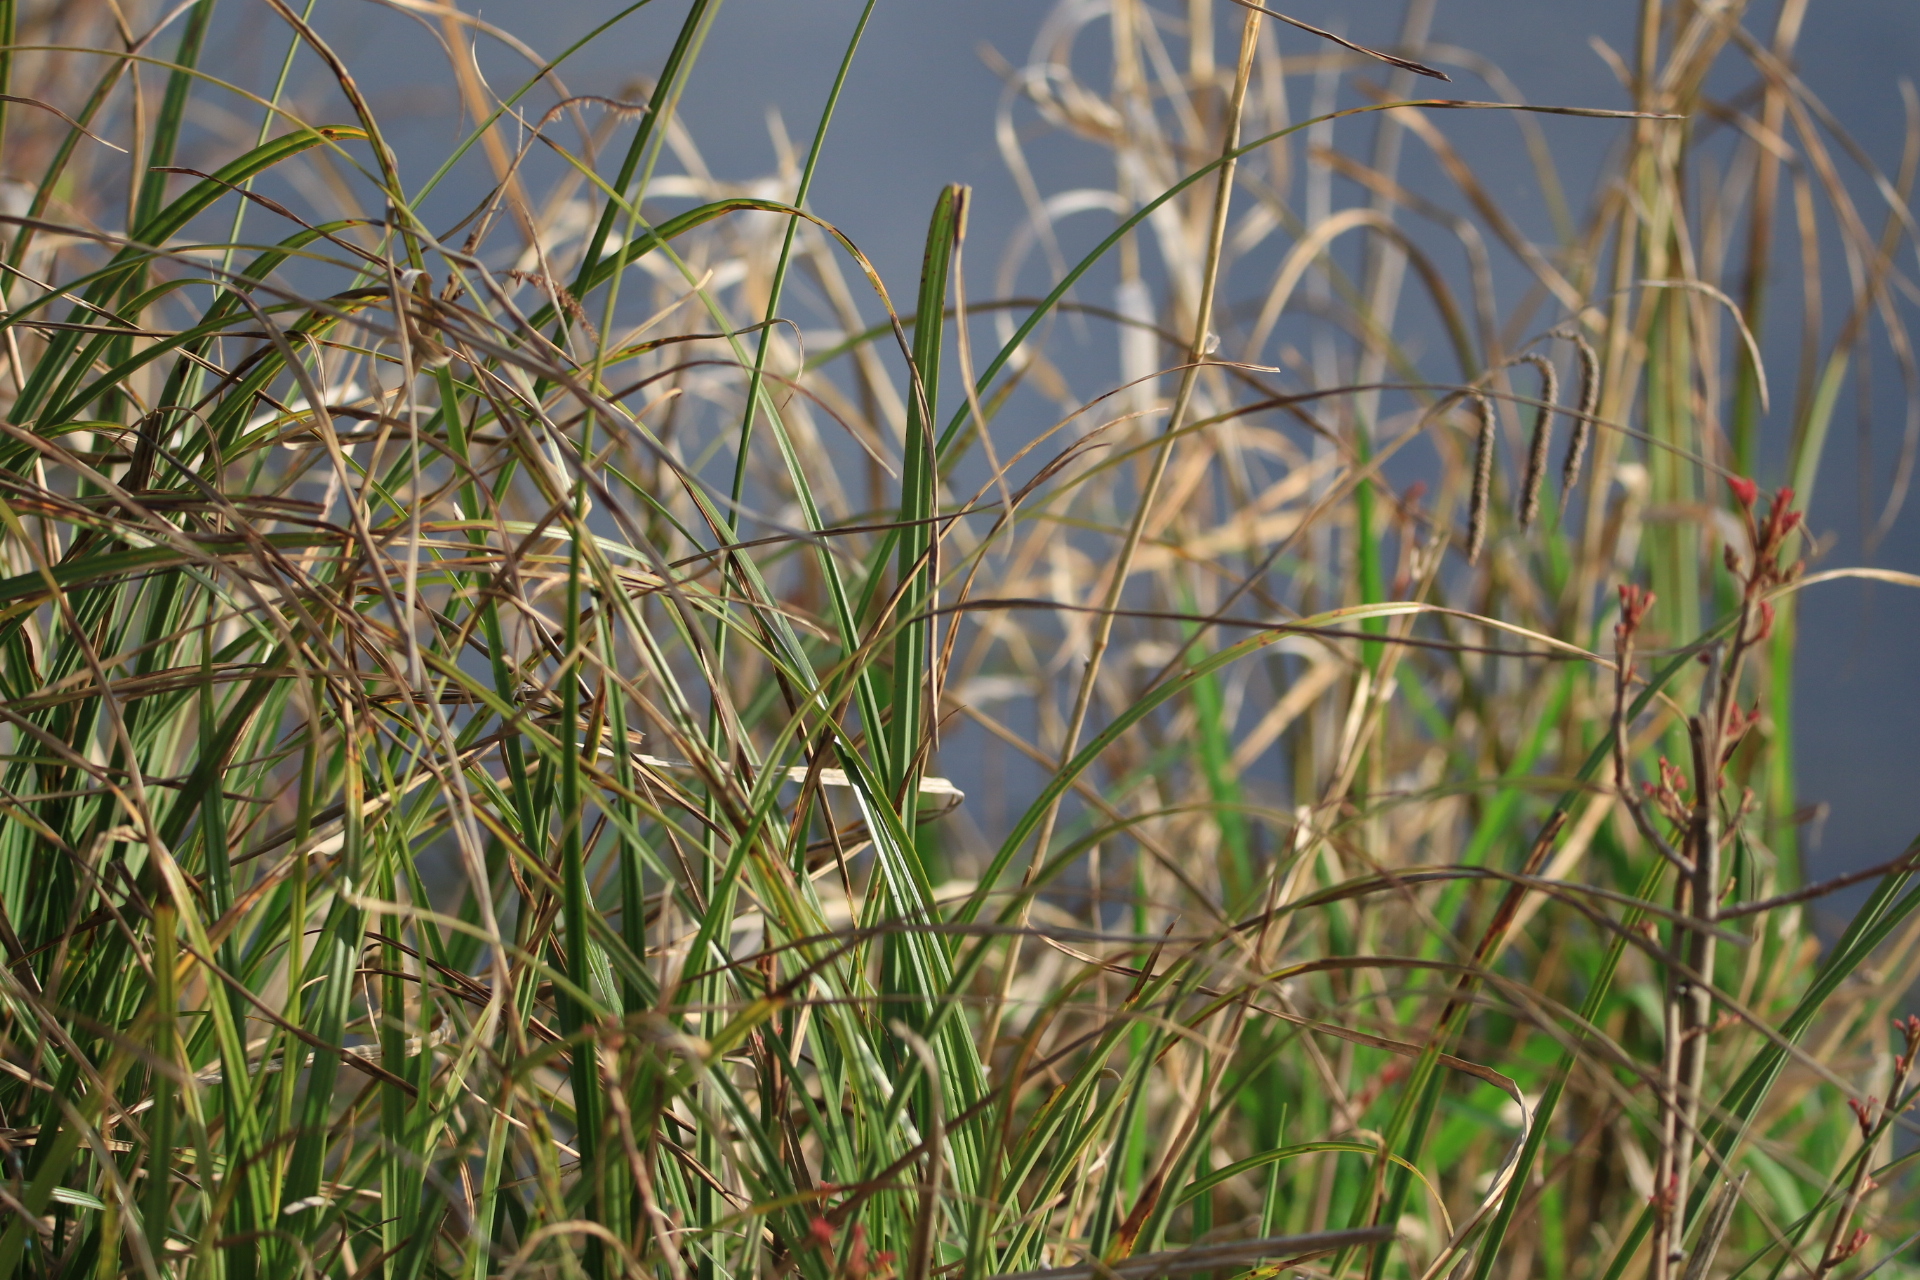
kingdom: Plantae
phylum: Tracheophyta
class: Liliopsida
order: Poales
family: Cyperaceae
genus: Carex
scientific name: Carex obnupta
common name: Slough sedge
